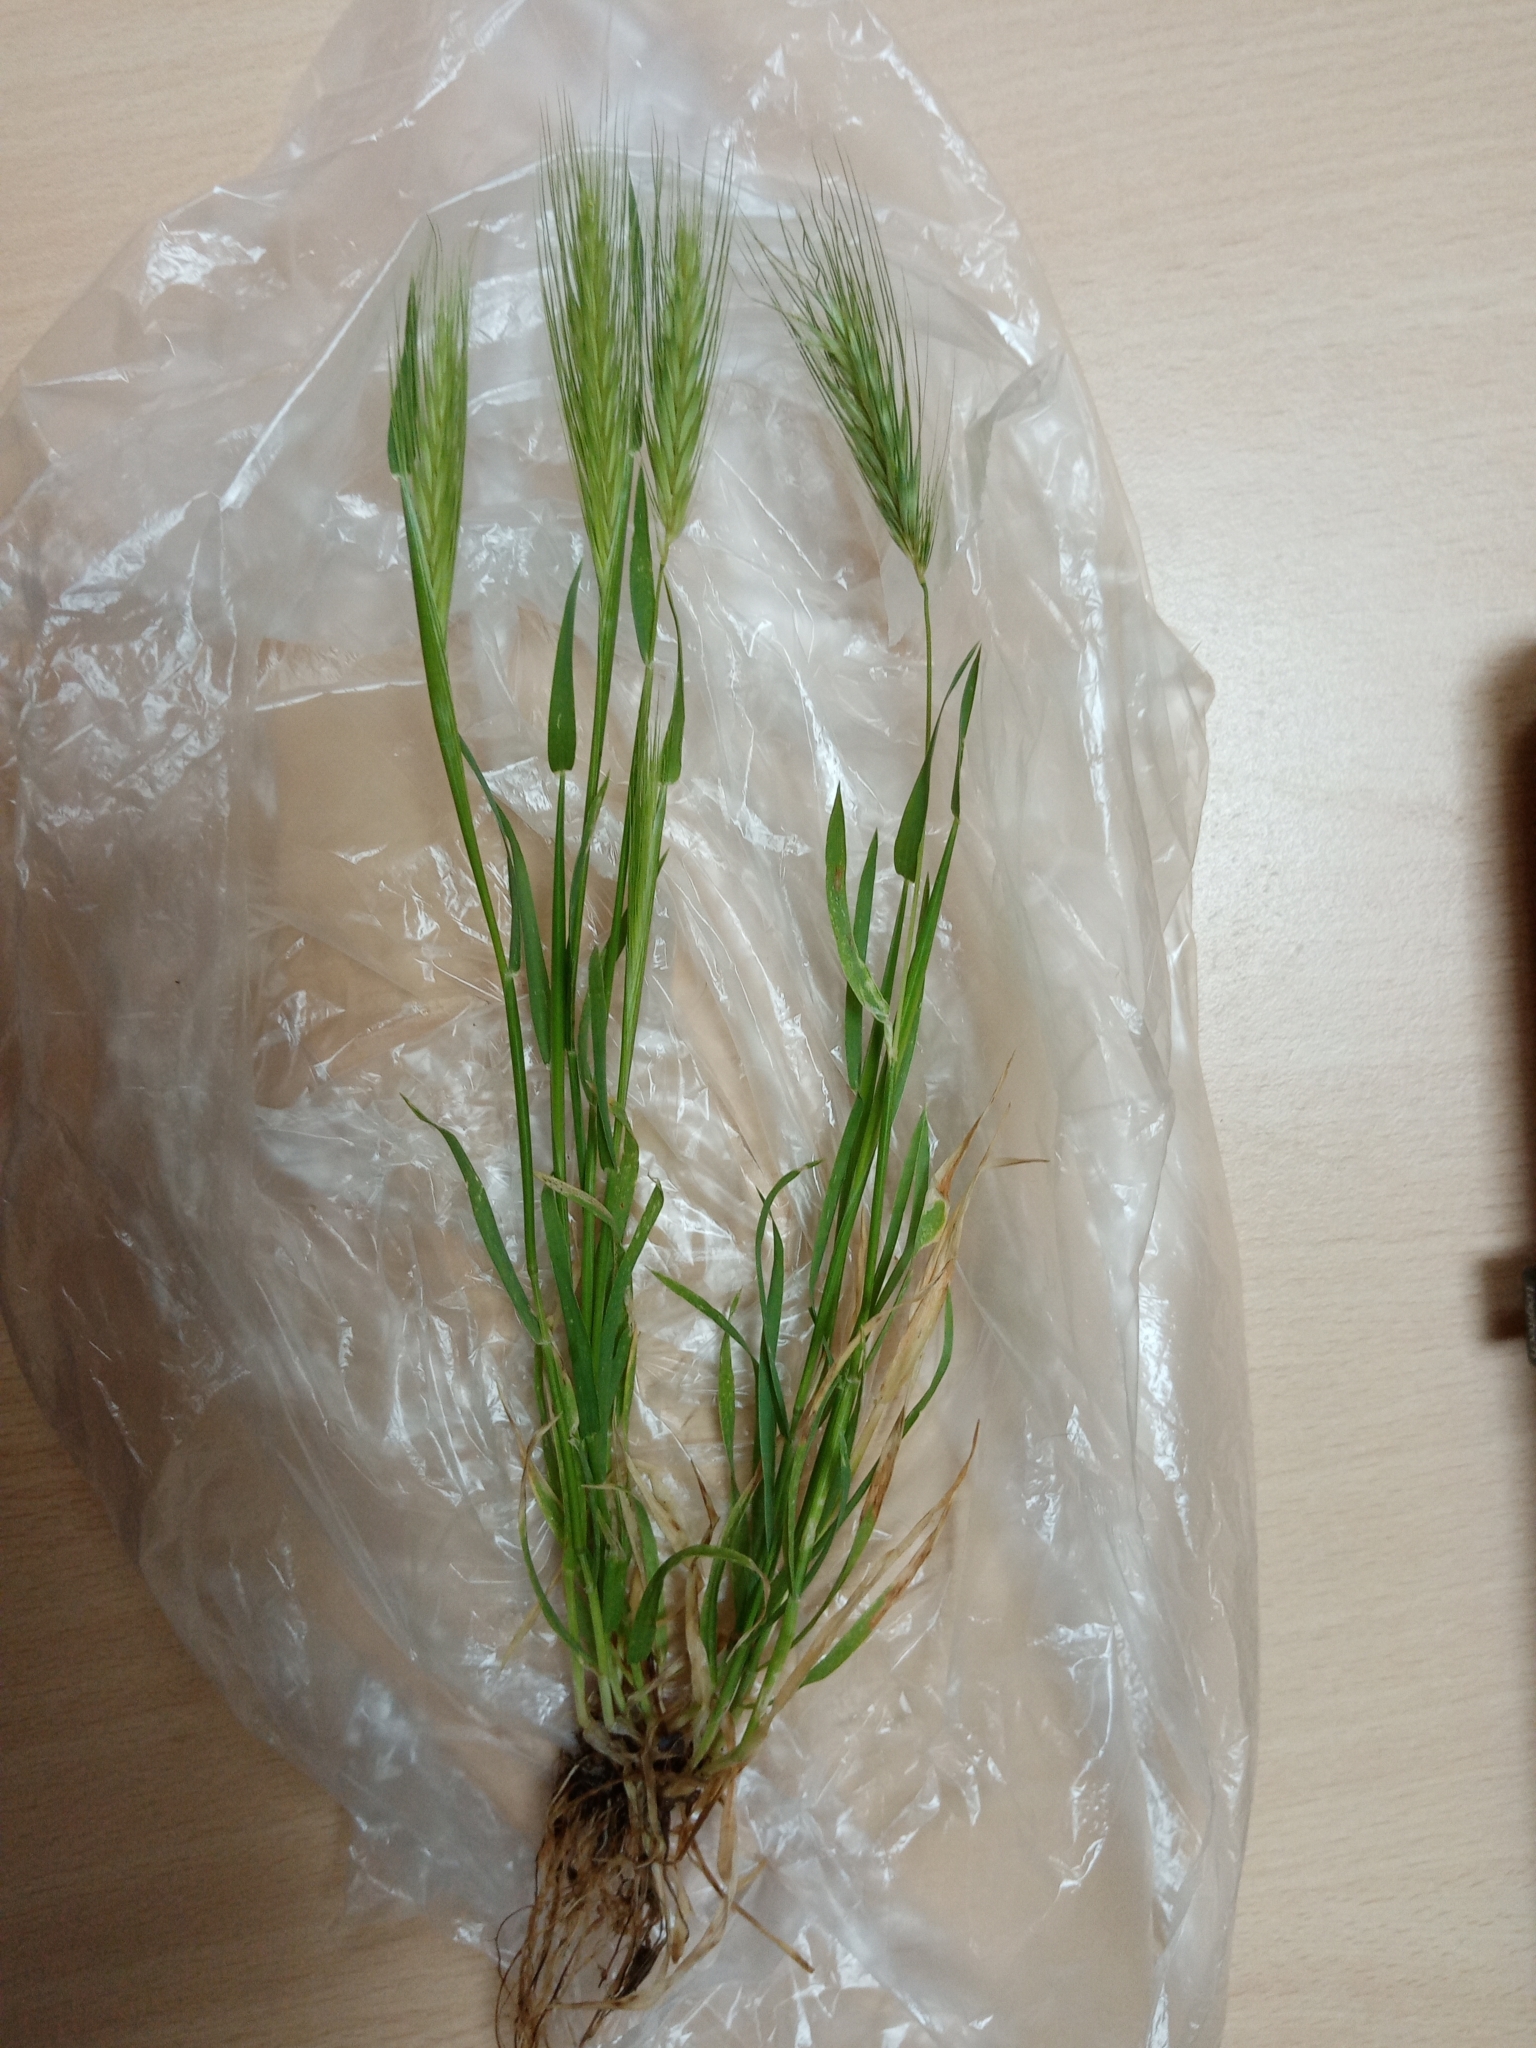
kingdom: Plantae
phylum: Tracheophyta
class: Liliopsida
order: Poales
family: Poaceae
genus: Hordeum
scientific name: Hordeum murinum
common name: Wall barley
